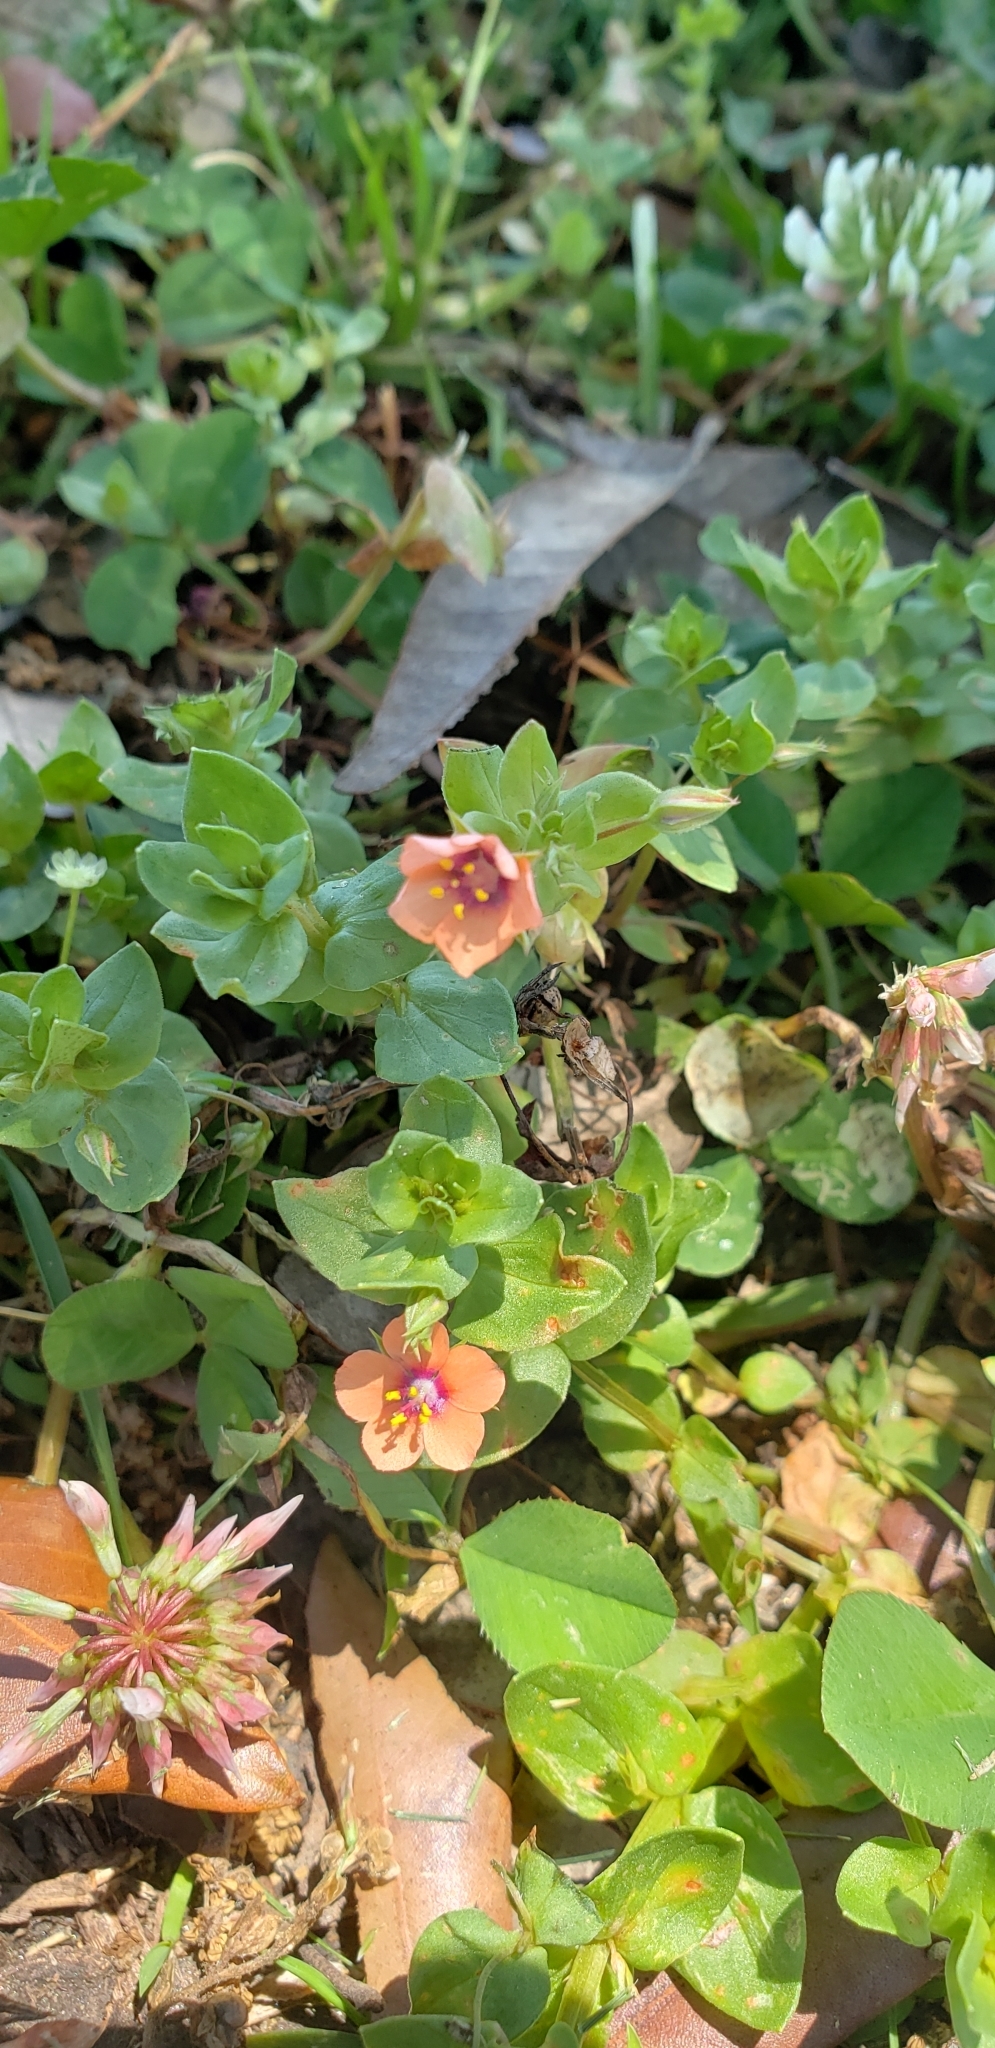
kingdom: Plantae
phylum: Tracheophyta
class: Magnoliopsida
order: Ericales
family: Primulaceae
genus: Lysimachia
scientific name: Lysimachia arvensis
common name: Scarlet pimpernel
